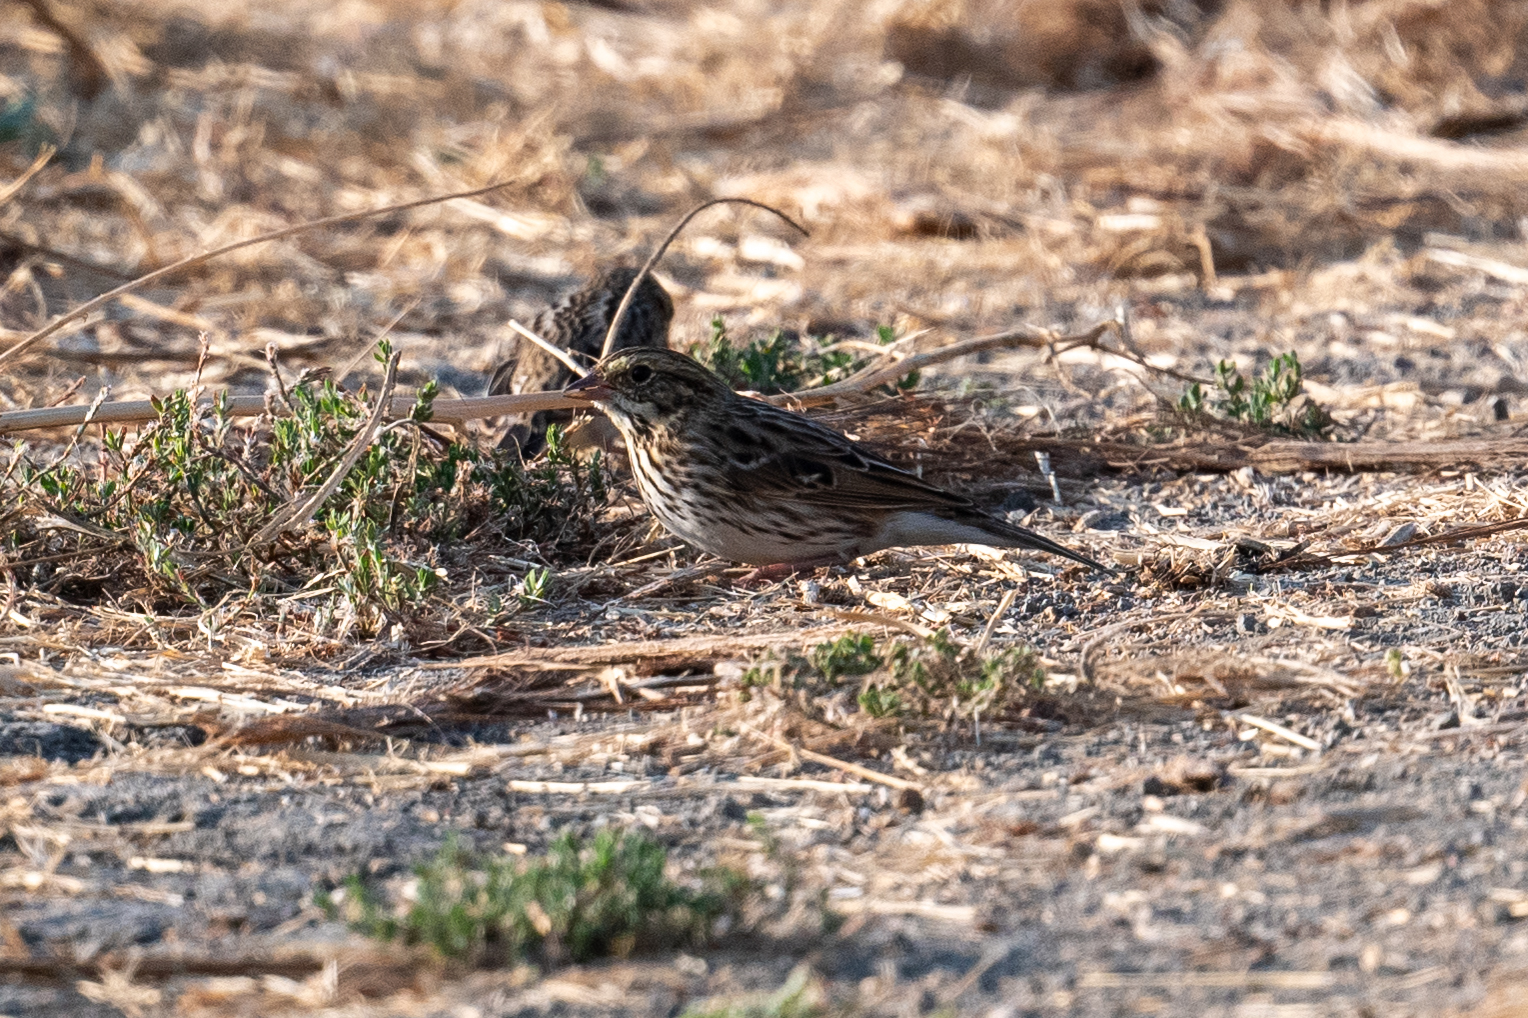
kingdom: Animalia
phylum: Chordata
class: Aves
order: Passeriformes
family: Passerellidae
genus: Passerculus
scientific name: Passerculus sandwichensis
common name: Savannah sparrow
